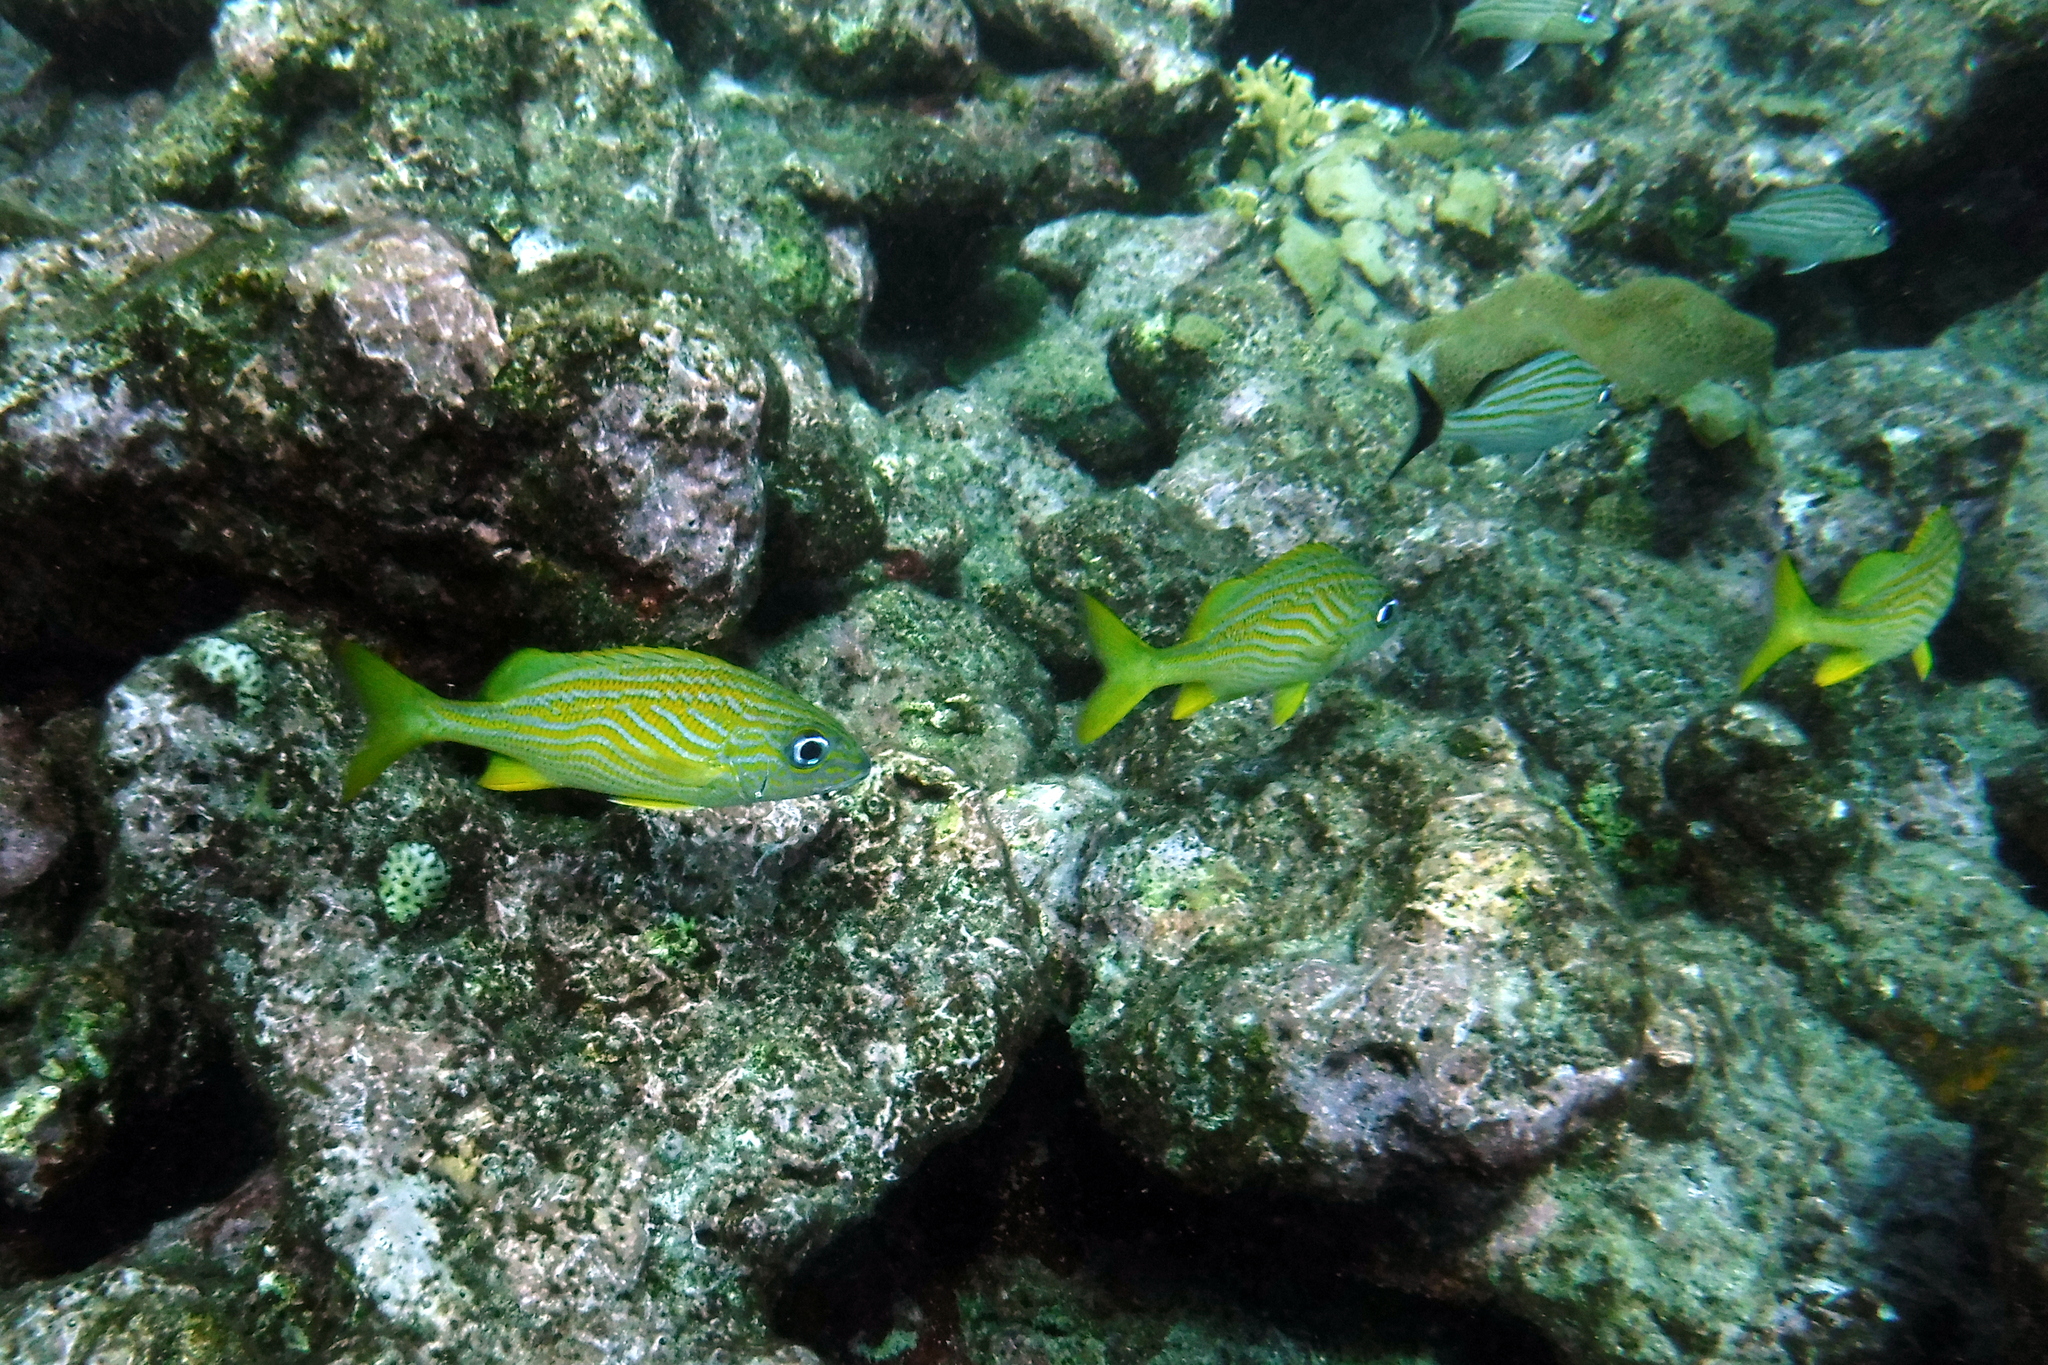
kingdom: Animalia
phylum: Chordata
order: Perciformes
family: Haemulidae
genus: Haemulon
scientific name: Haemulon flavolineatum
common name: French grunt
